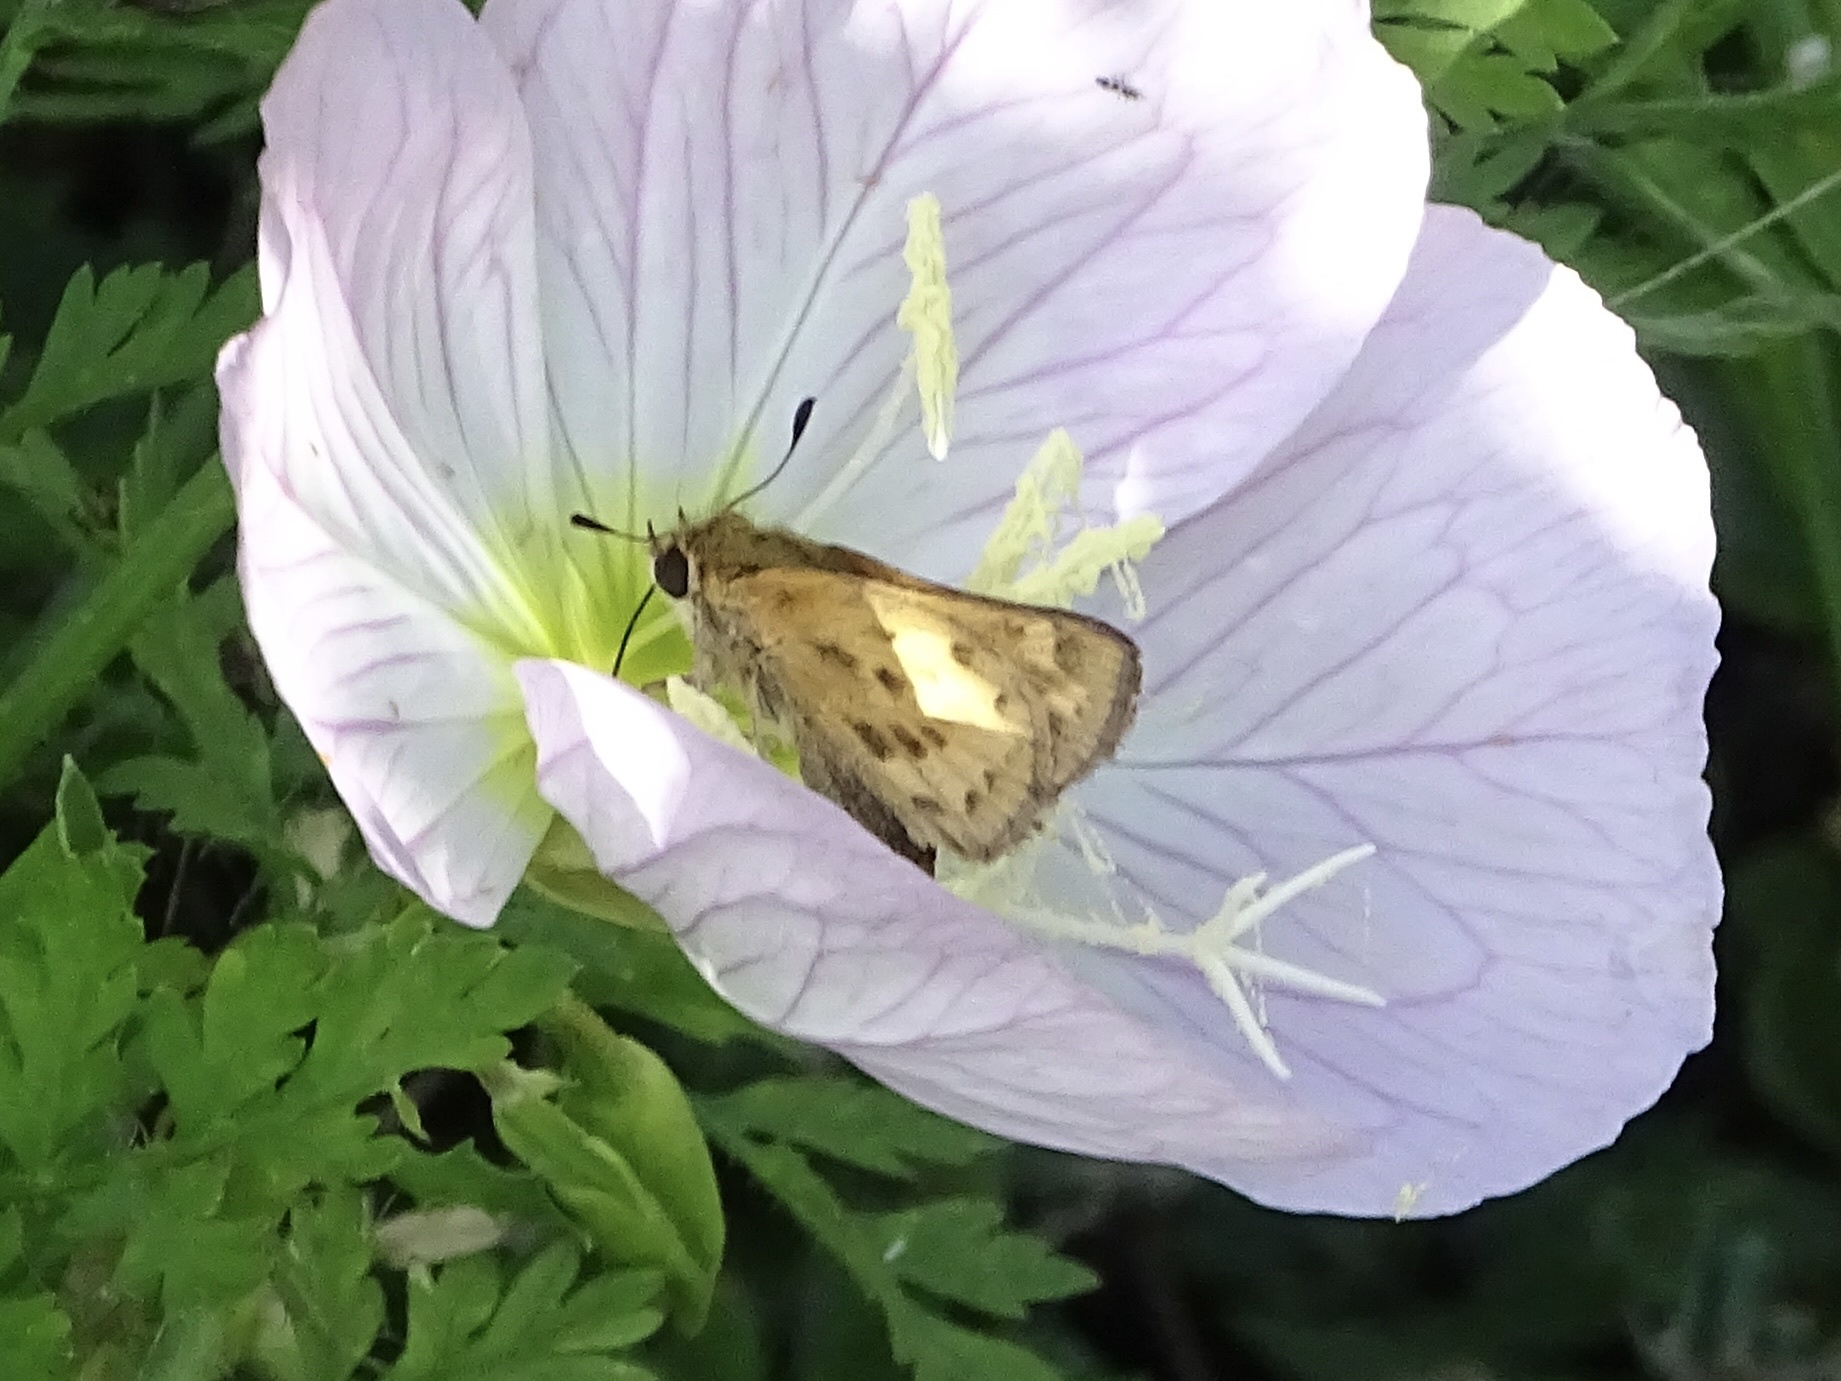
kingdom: Animalia
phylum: Arthropoda
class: Insecta
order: Lepidoptera
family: Hesperiidae
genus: Hylephila
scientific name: Hylephila phyleus
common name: Fiery skipper
